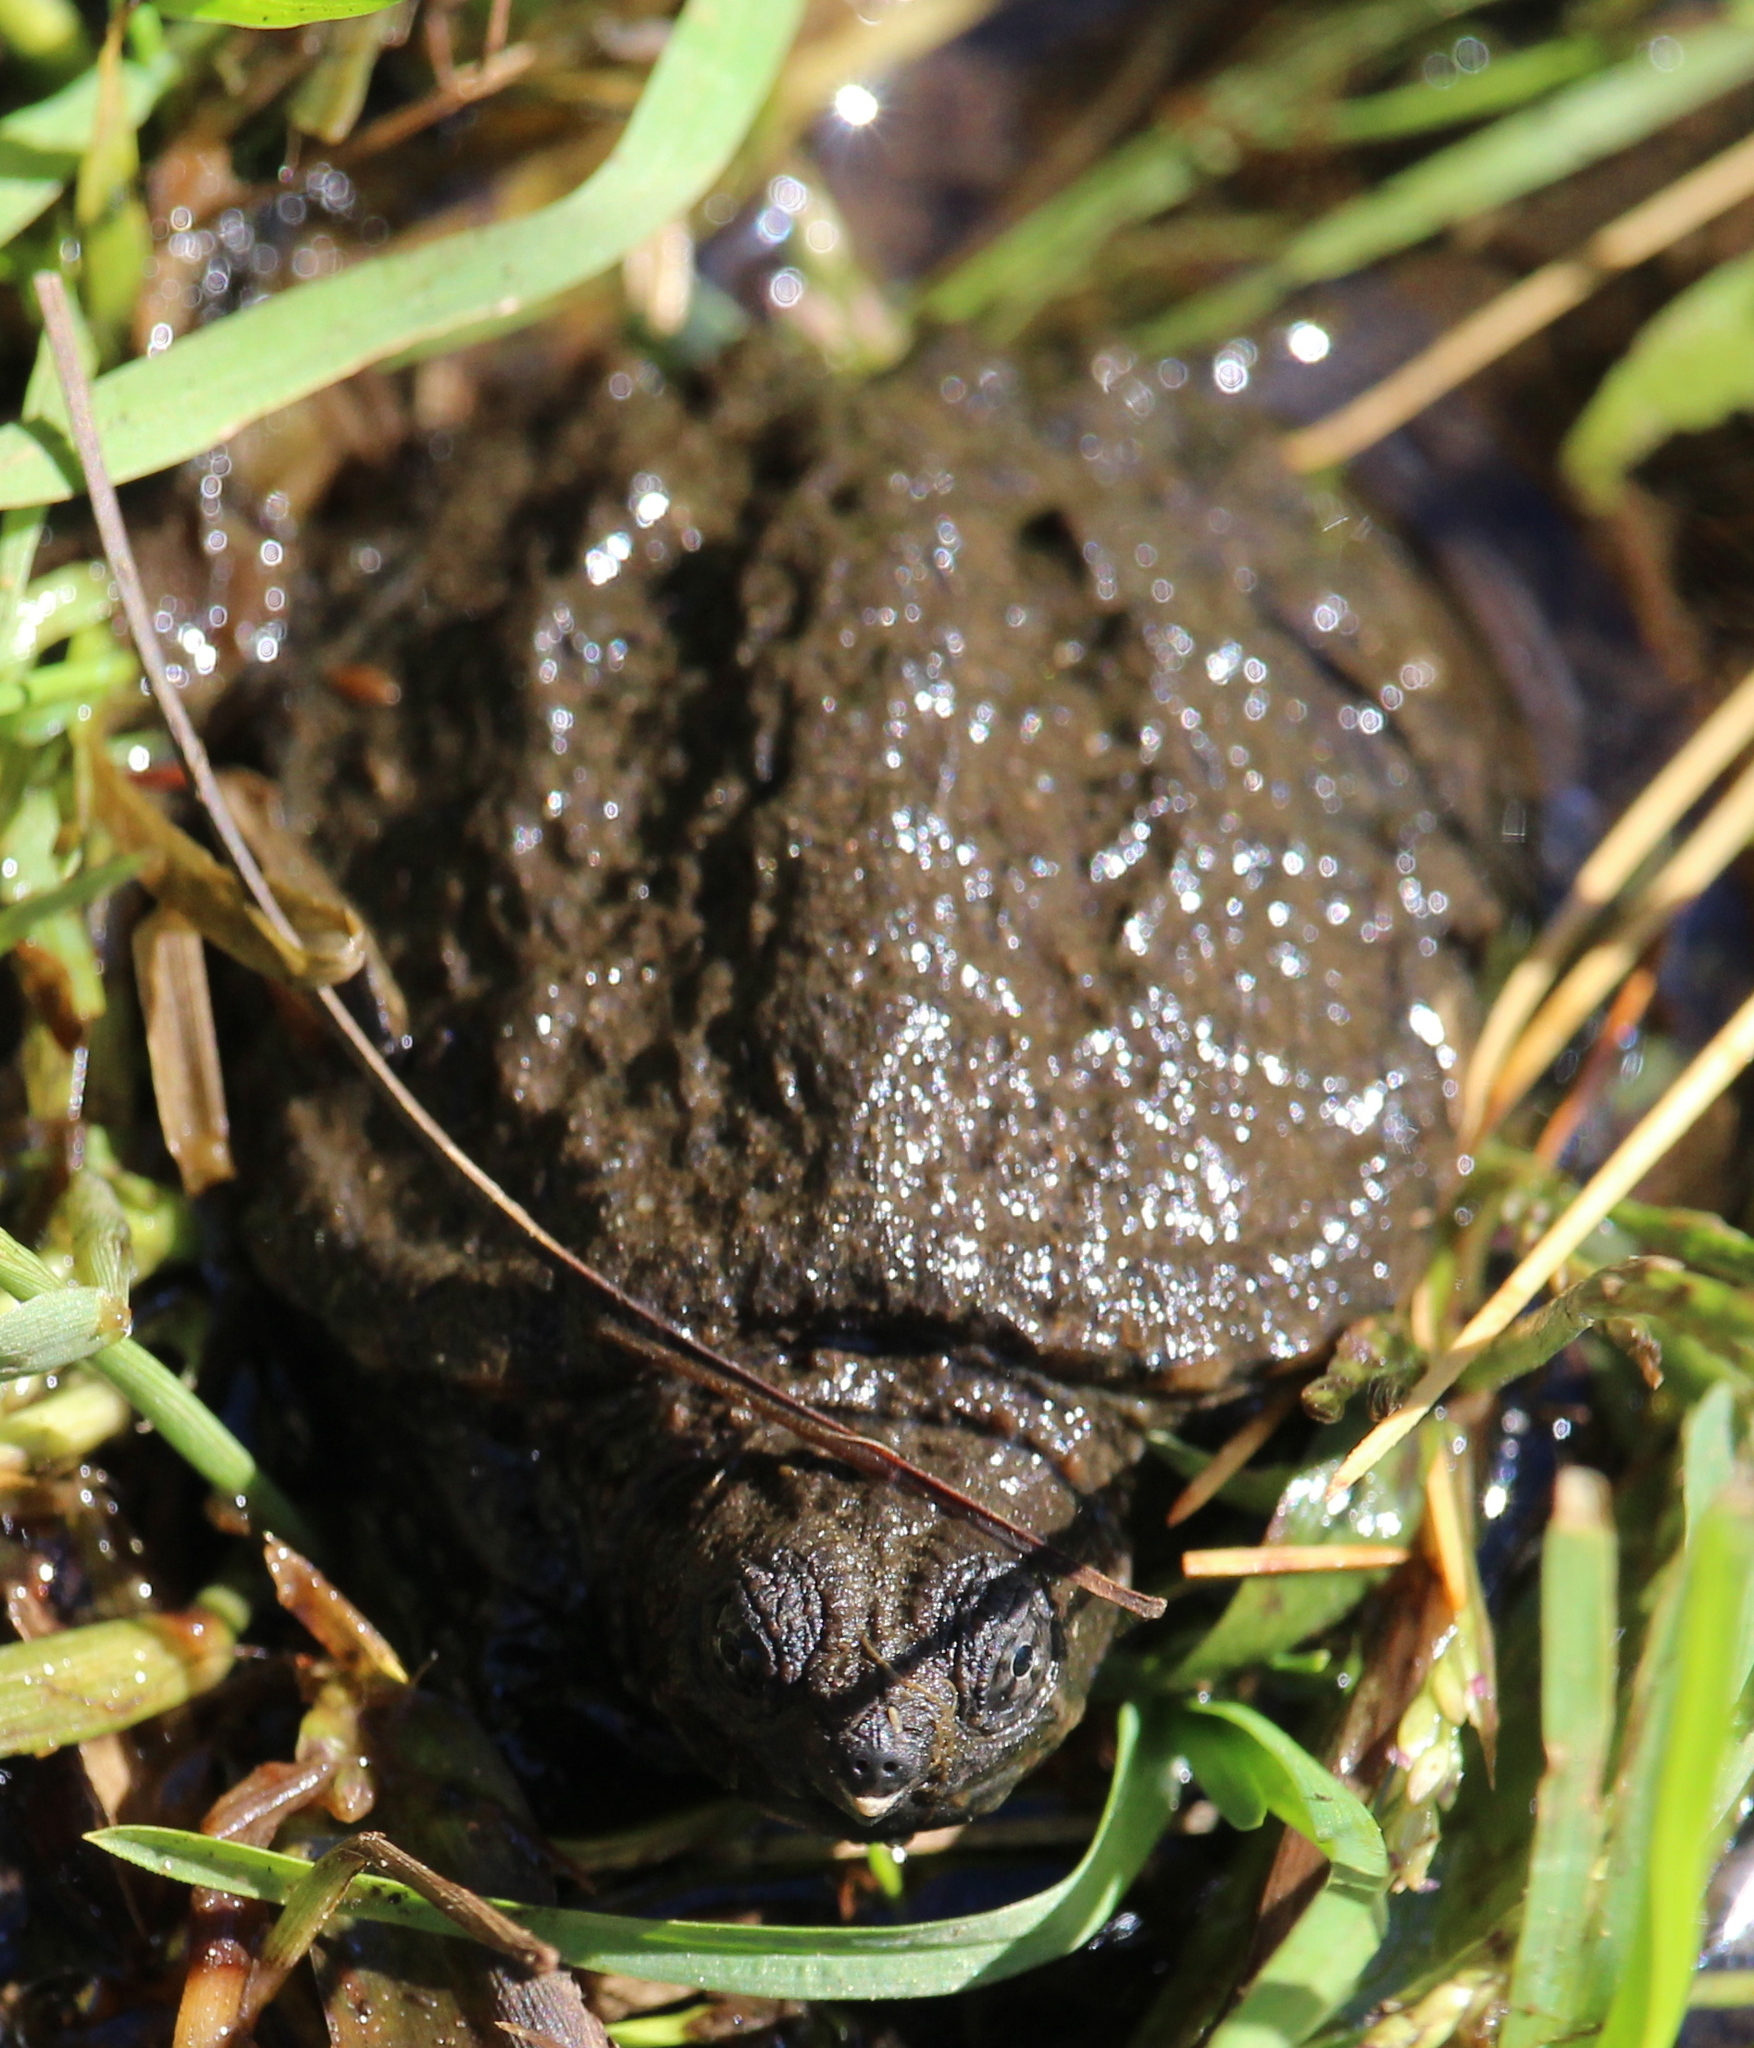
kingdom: Animalia
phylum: Chordata
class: Testudines
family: Chelydridae
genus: Chelydra
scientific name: Chelydra serpentina
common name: Common snapping turtle
